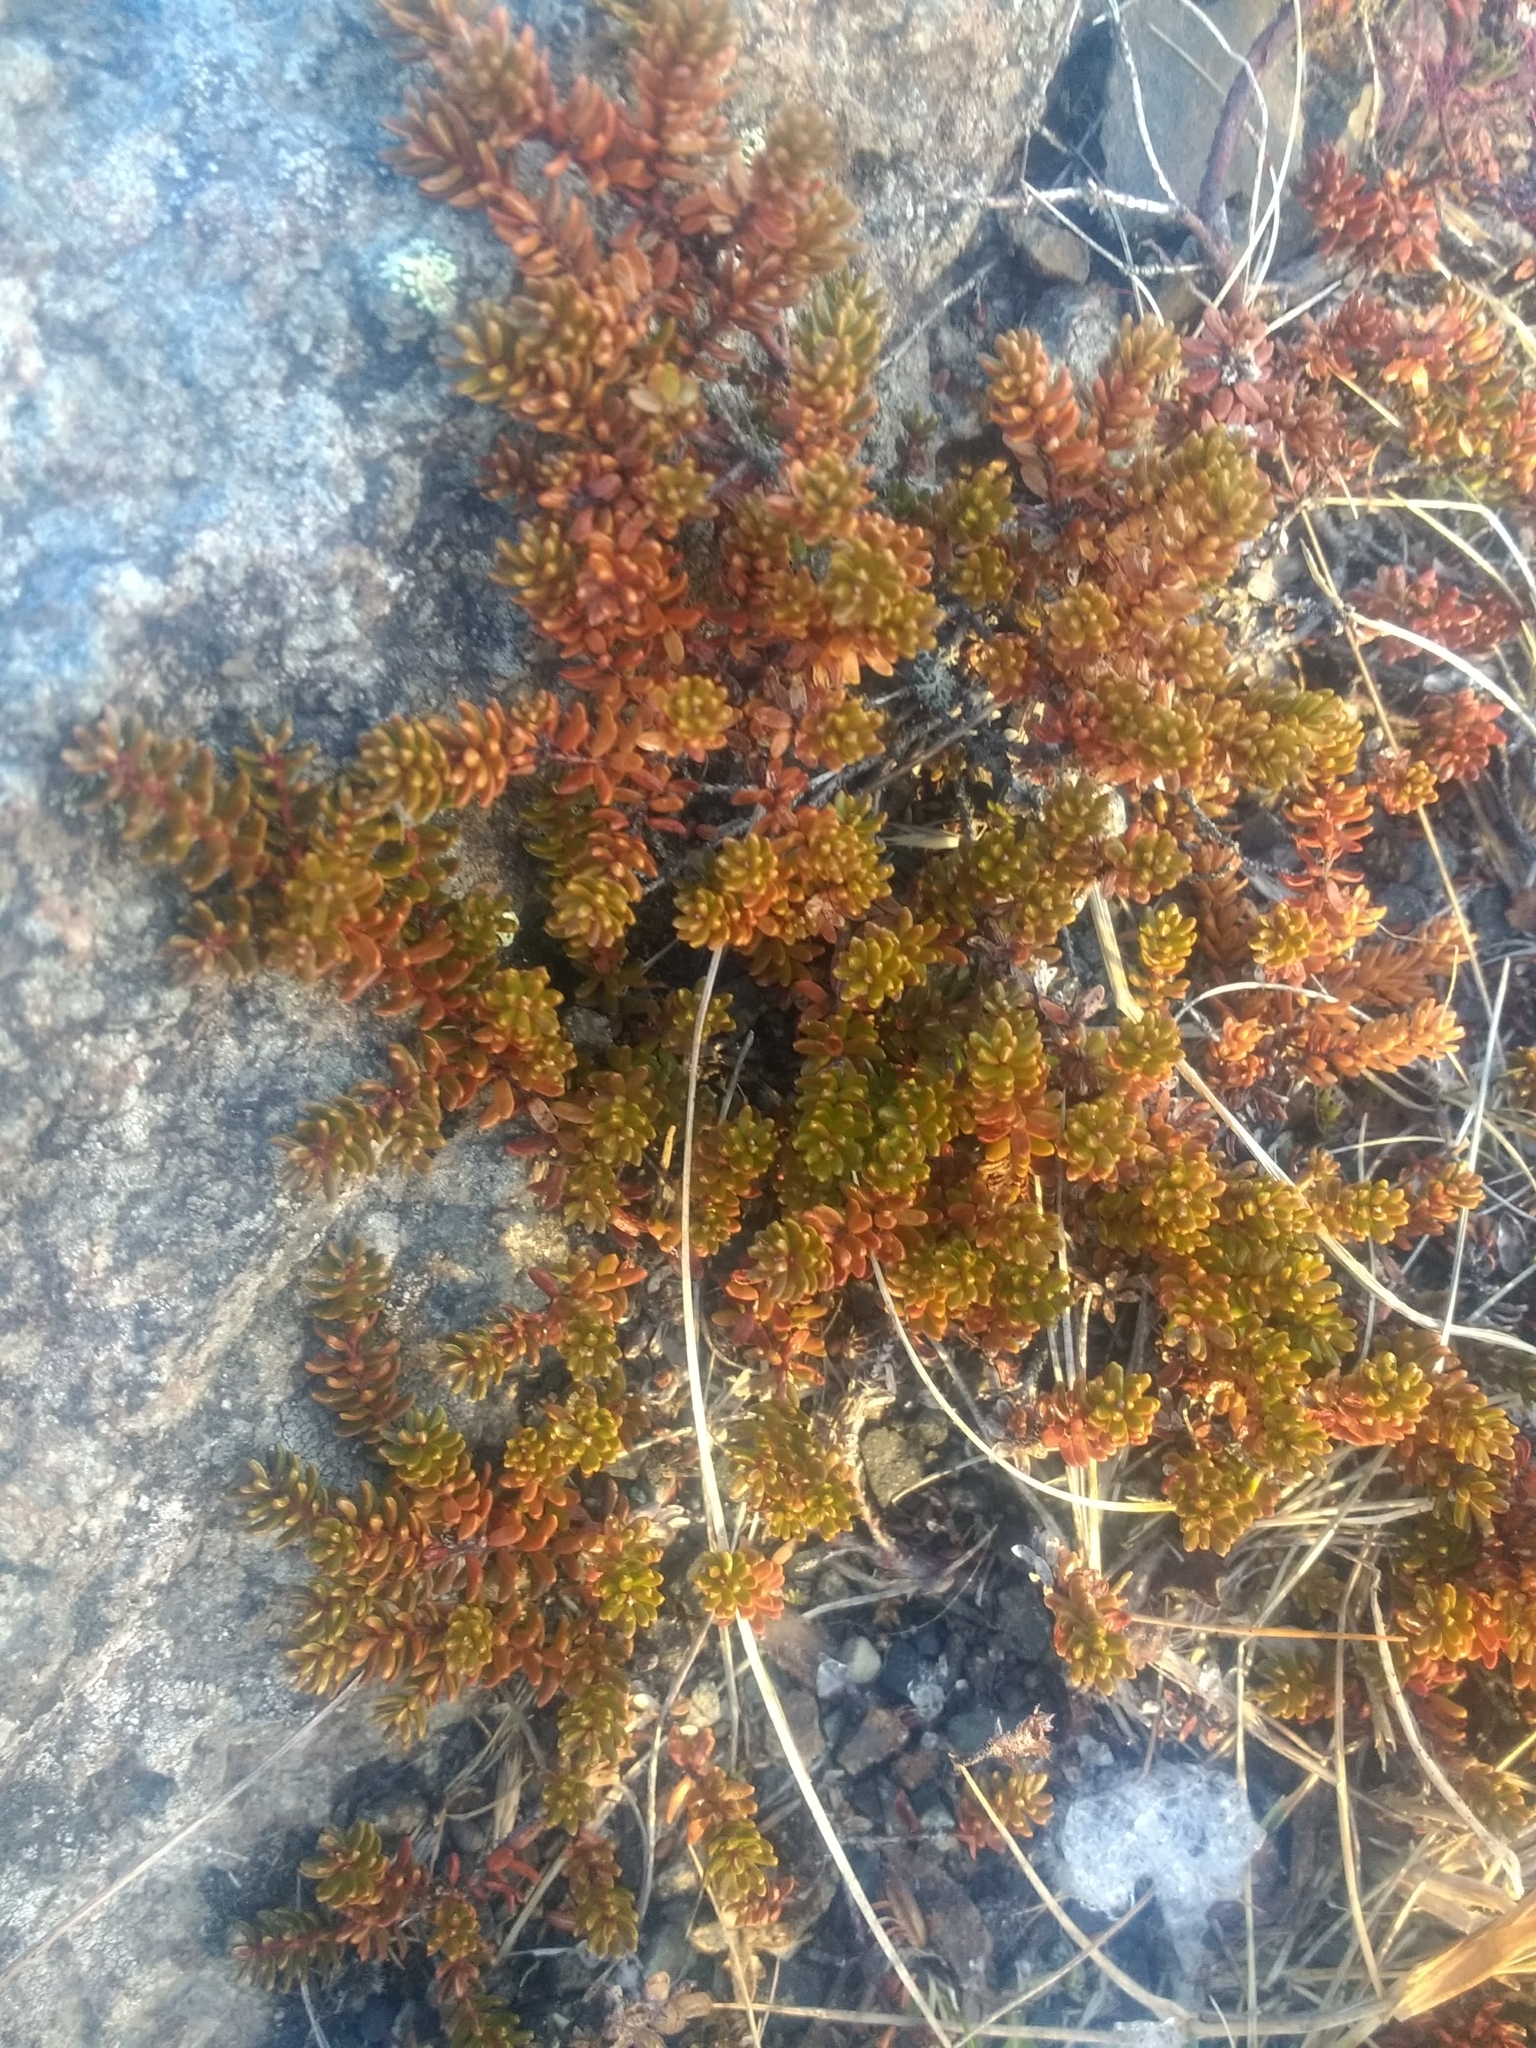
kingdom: Plantae
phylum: Tracheophyta
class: Magnoliopsida
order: Ericales
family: Ericaceae
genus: Empetrum
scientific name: Empetrum nigrum
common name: Black crowberry
